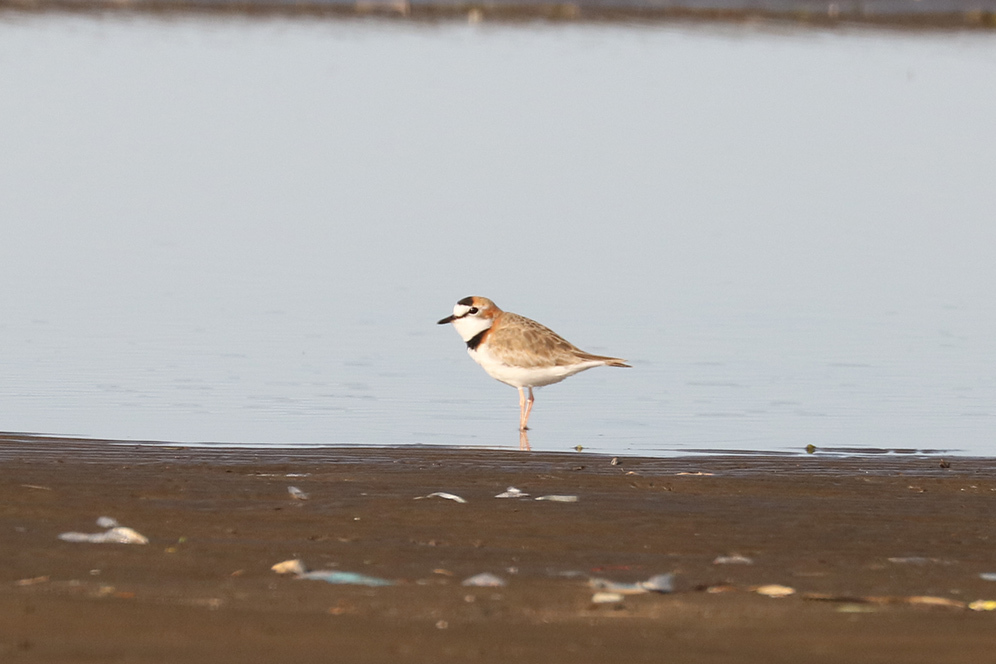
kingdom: Animalia
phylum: Chordata
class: Aves
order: Charadriiformes
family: Charadriidae
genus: Anarhynchus
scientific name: Anarhynchus
